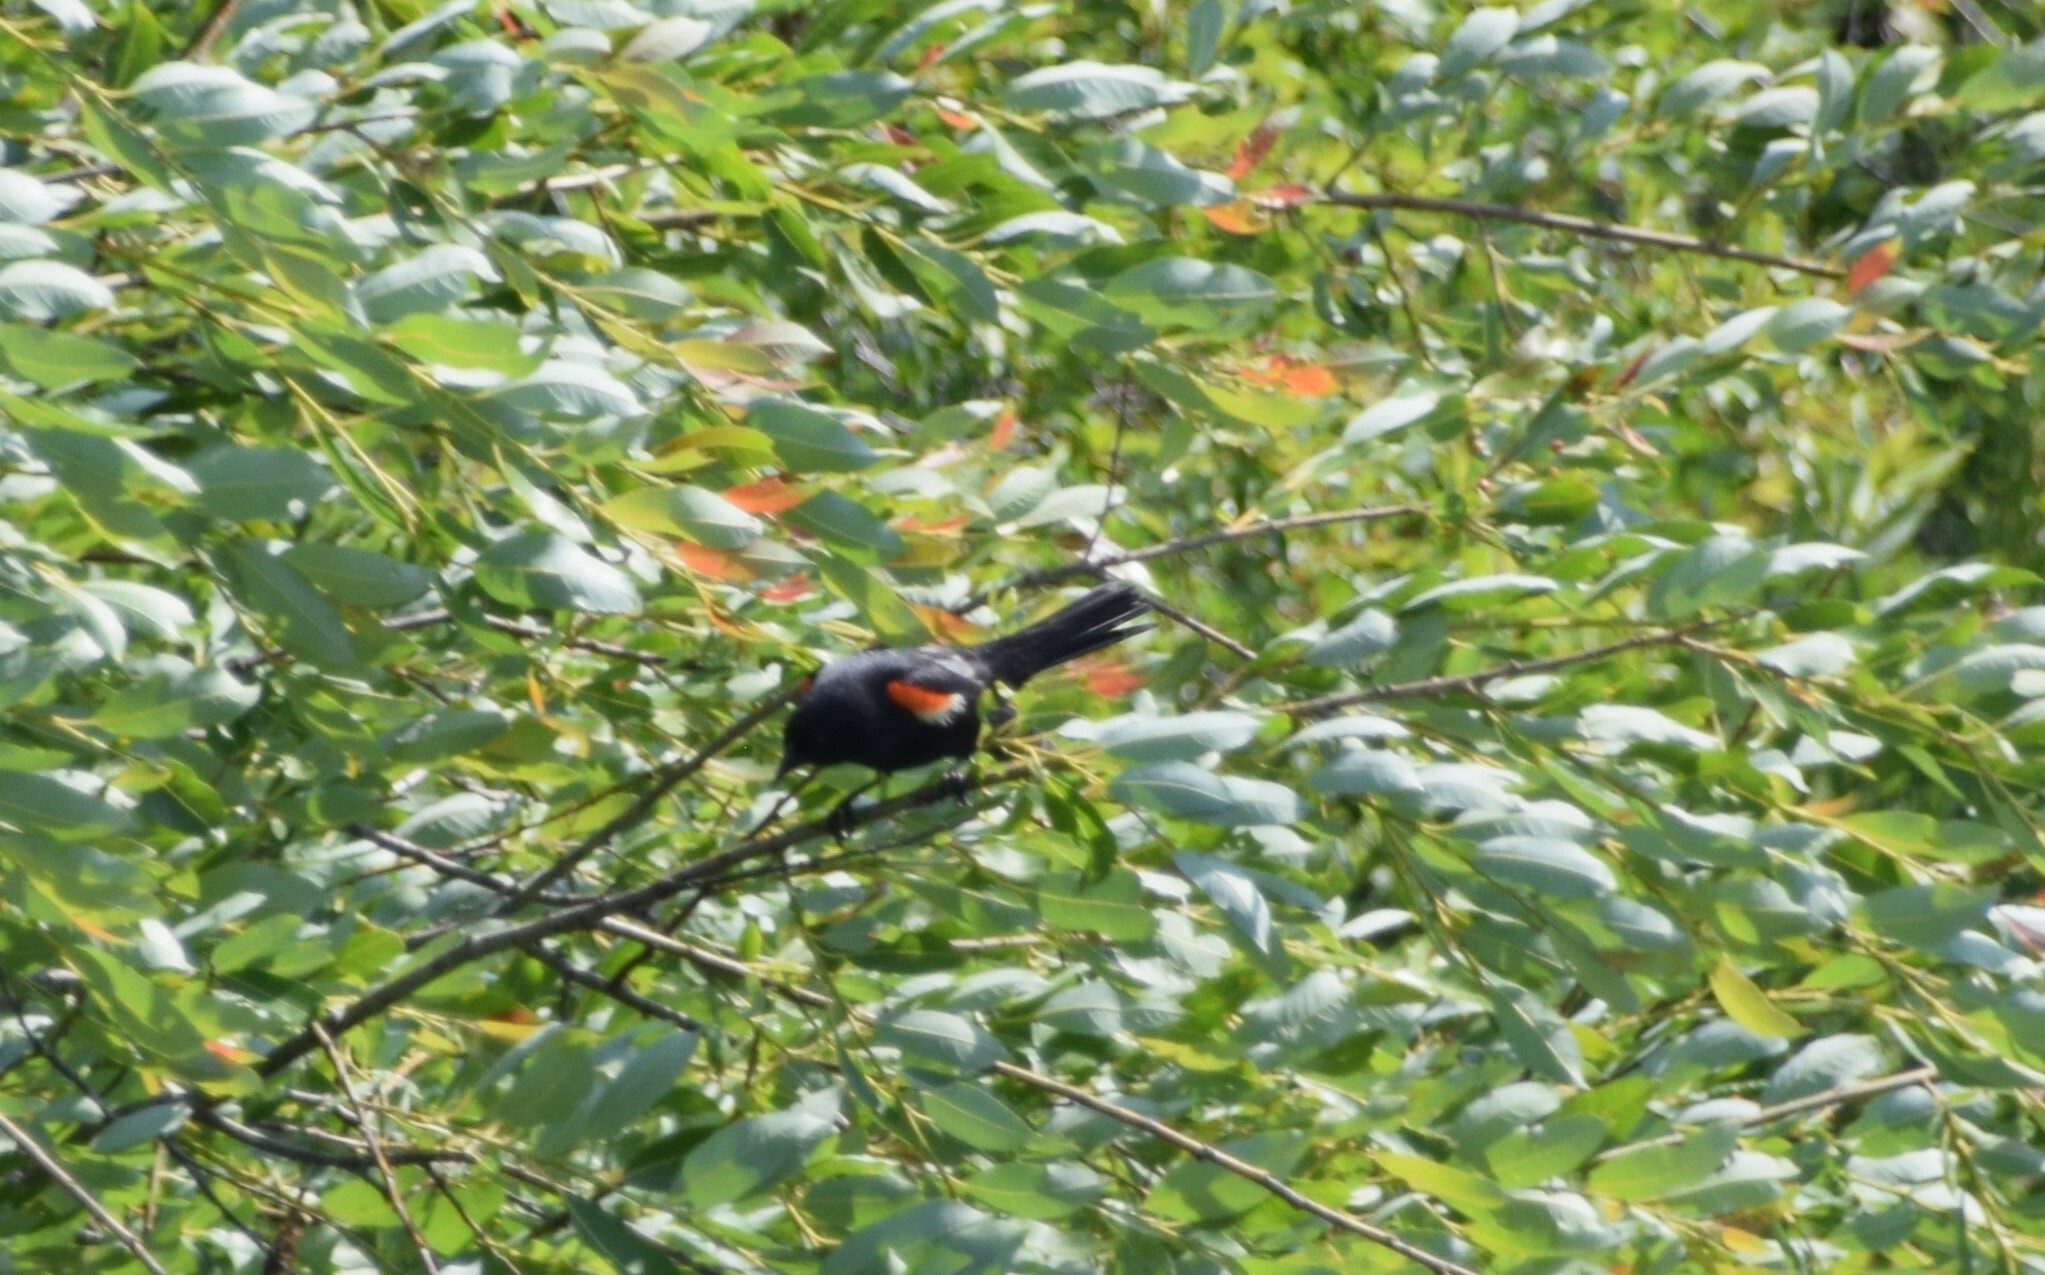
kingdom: Animalia
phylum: Chordata
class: Aves
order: Passeriformes
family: Icteridae
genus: Agelaius
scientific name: Agelaius phoeniceus
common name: Red-winged blackbird
